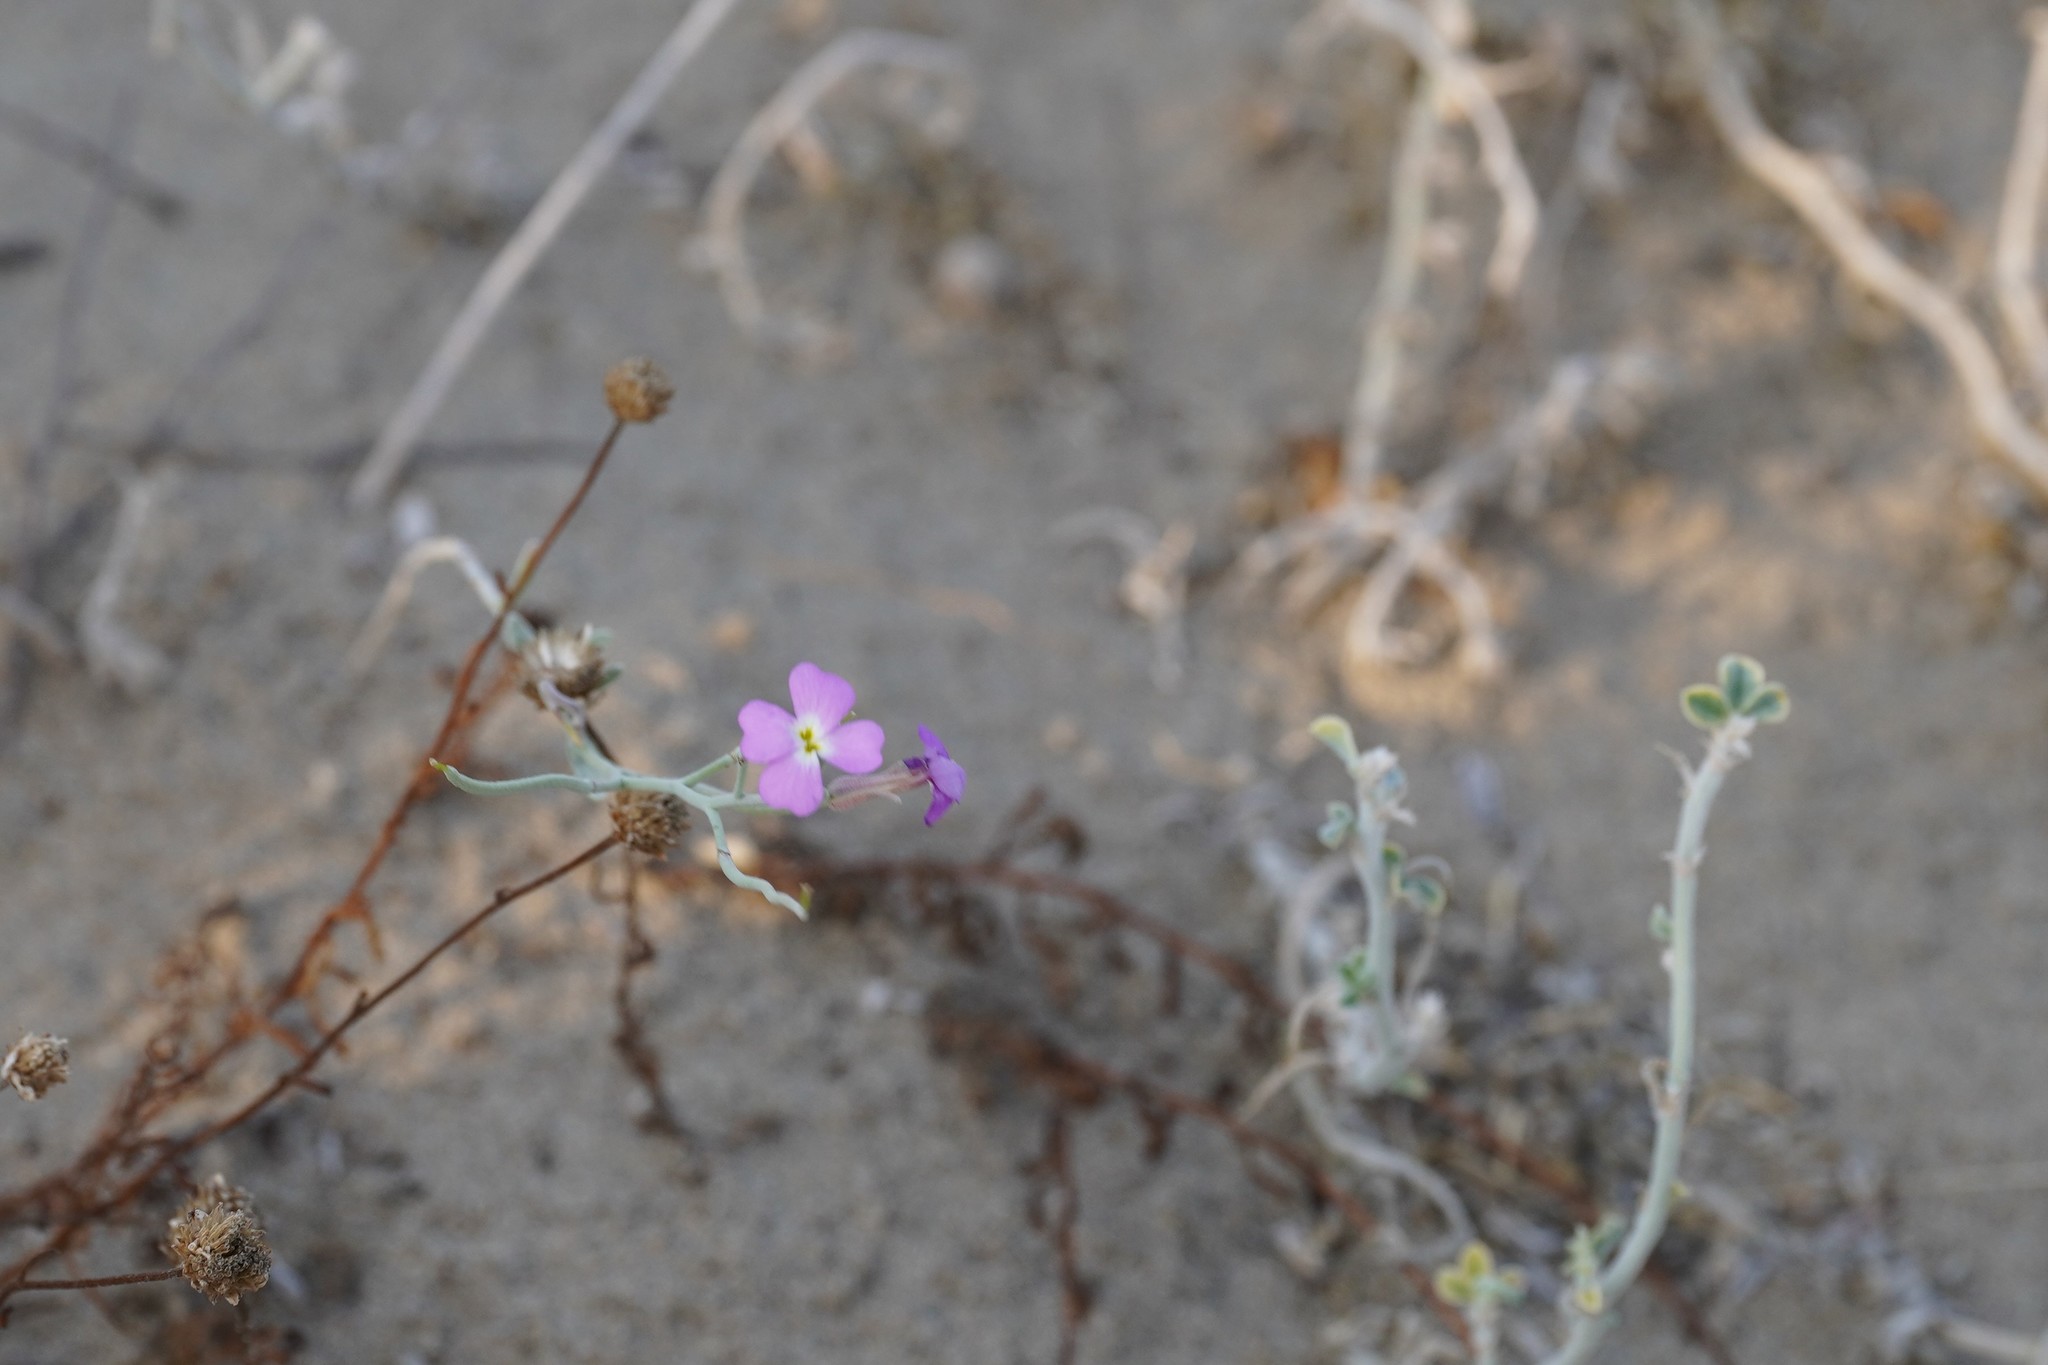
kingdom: Plantae
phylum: Tracheophyta
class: Magnoliopsida
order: Brassicales
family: Brassicaceae
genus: Marcuskochia
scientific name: Marcuskochia littorea
